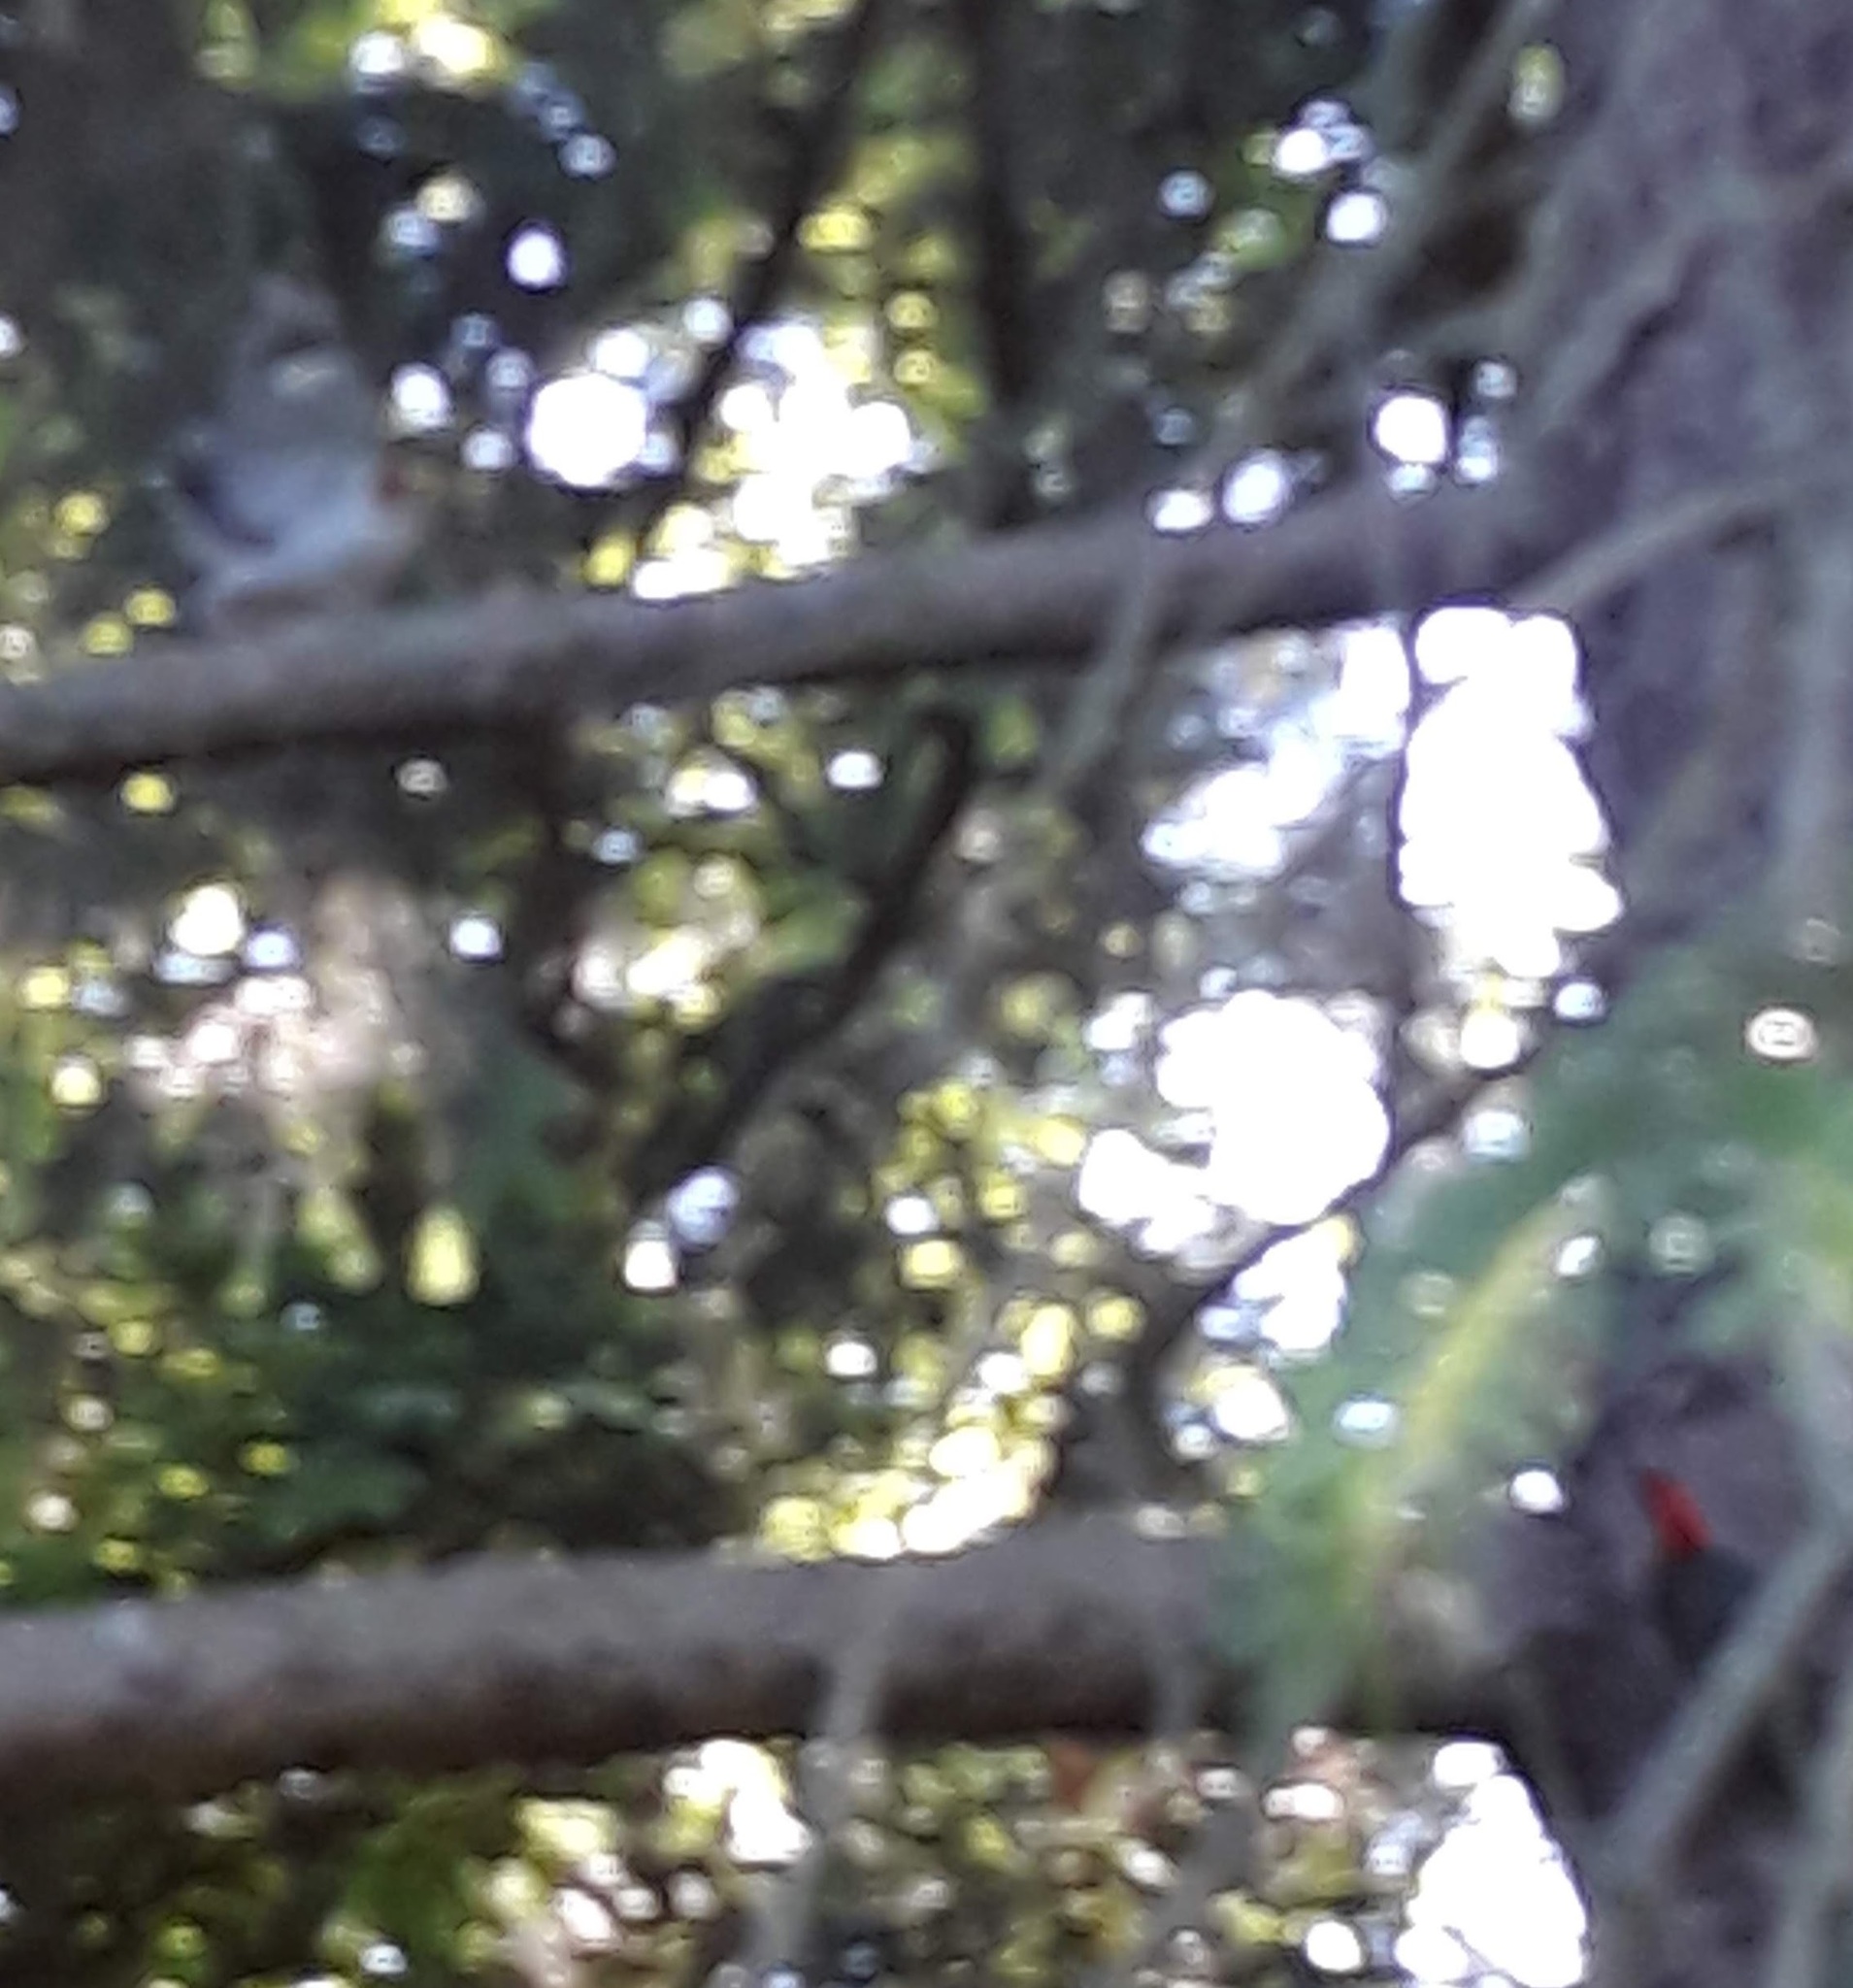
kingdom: Animalia
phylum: Chordata
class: Aves
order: Piciformes
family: Picidae
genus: Melanerpes
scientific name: Melanerpes carolinus
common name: Red-bellied woodpecker
